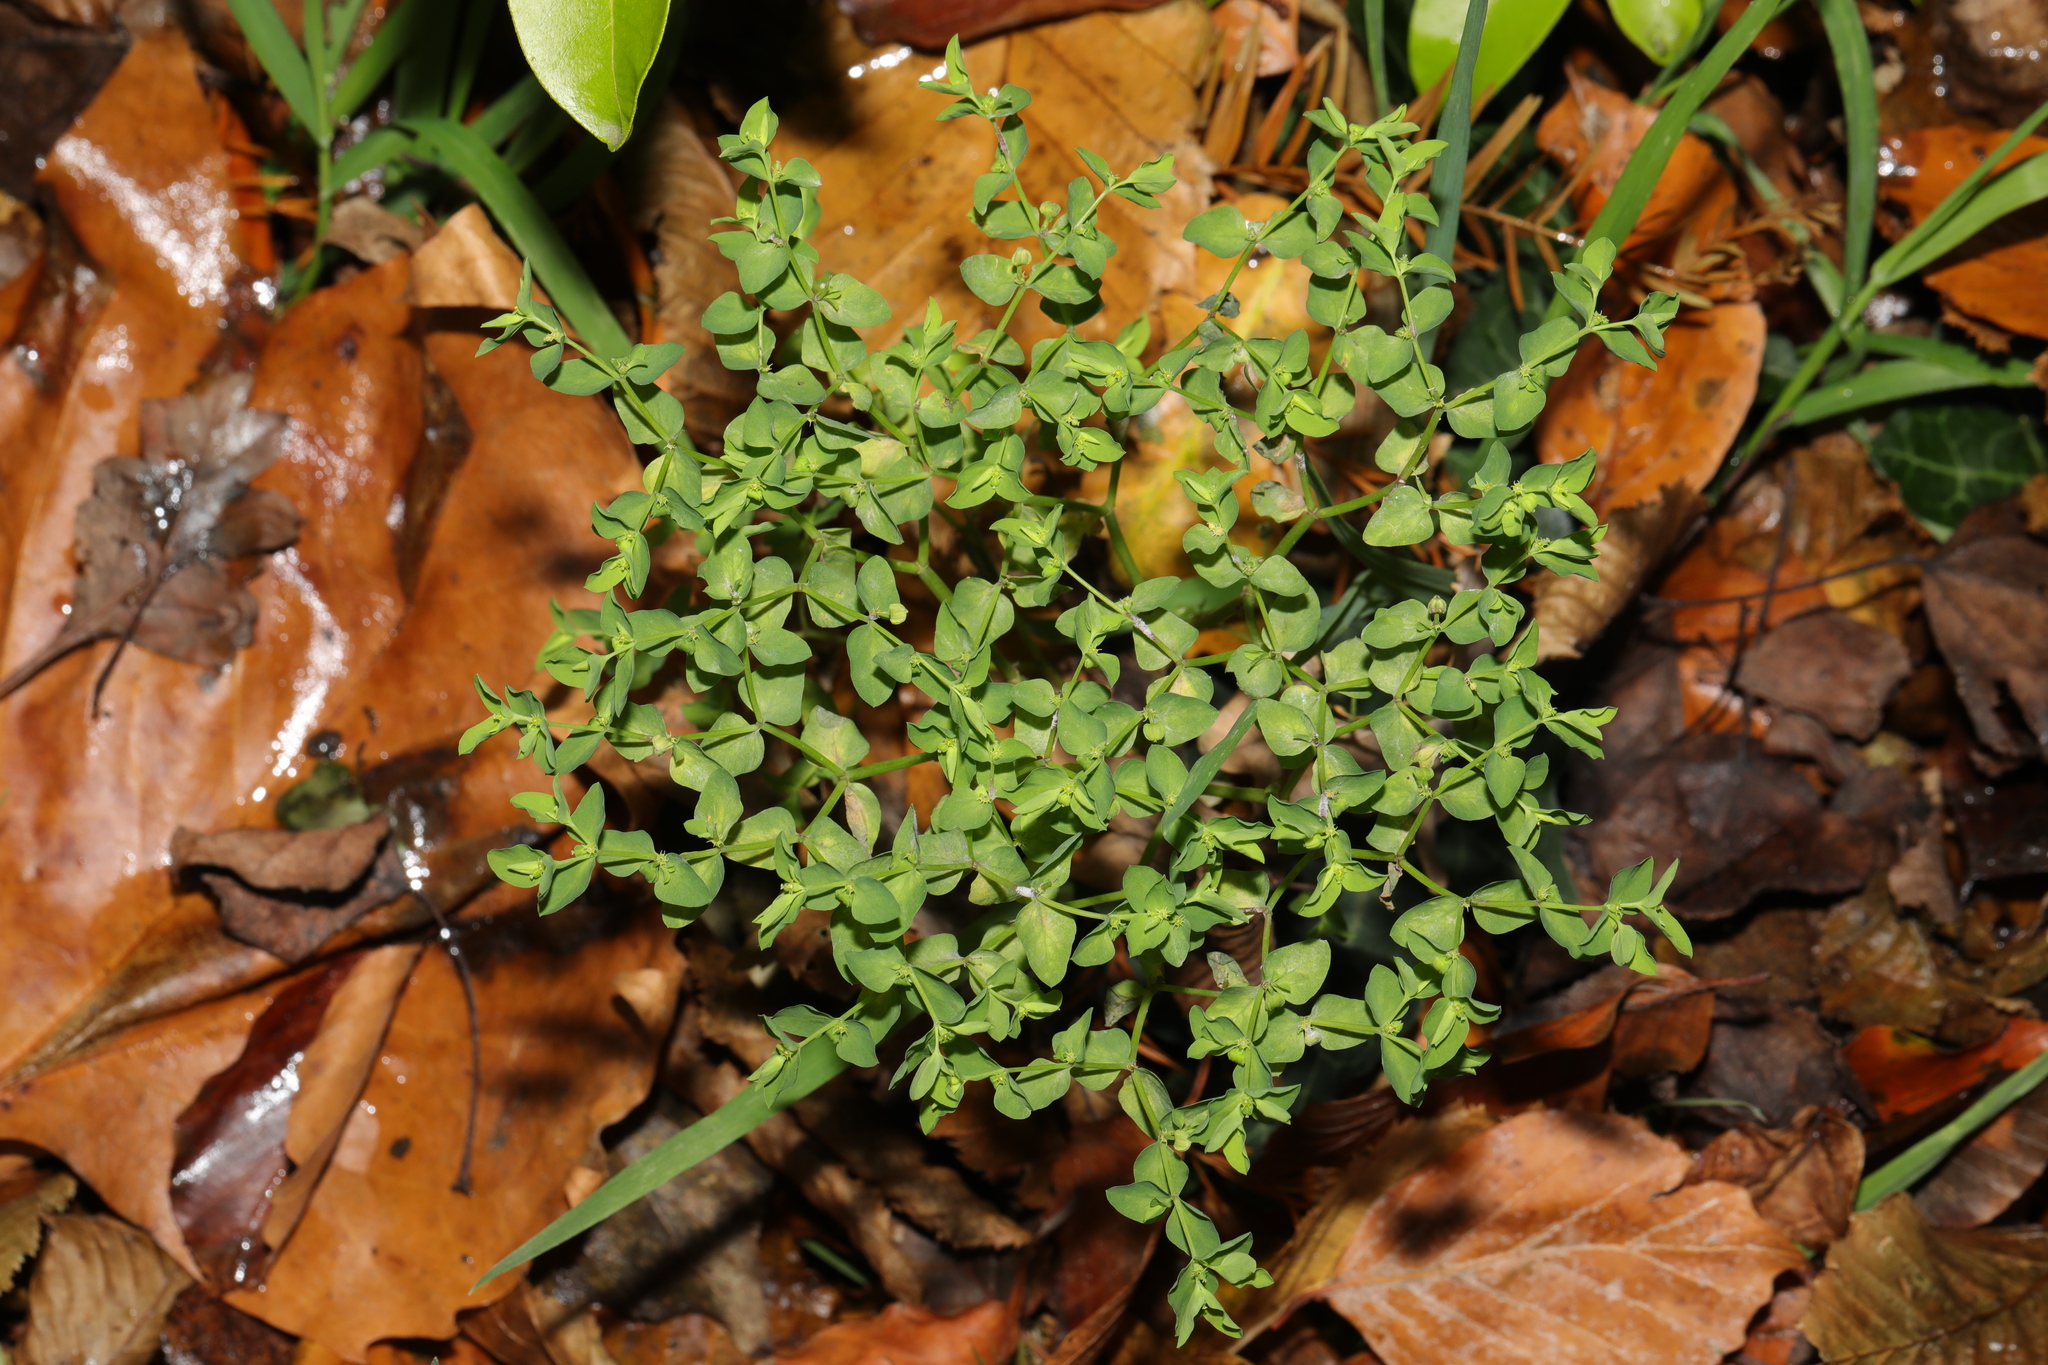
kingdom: Plantae
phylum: Tracheophyta
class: Magnoliopsida
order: Malpighiales
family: Euphorbiaceae
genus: Euphorbia
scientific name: Euphorbia peplus
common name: Petty spurge
